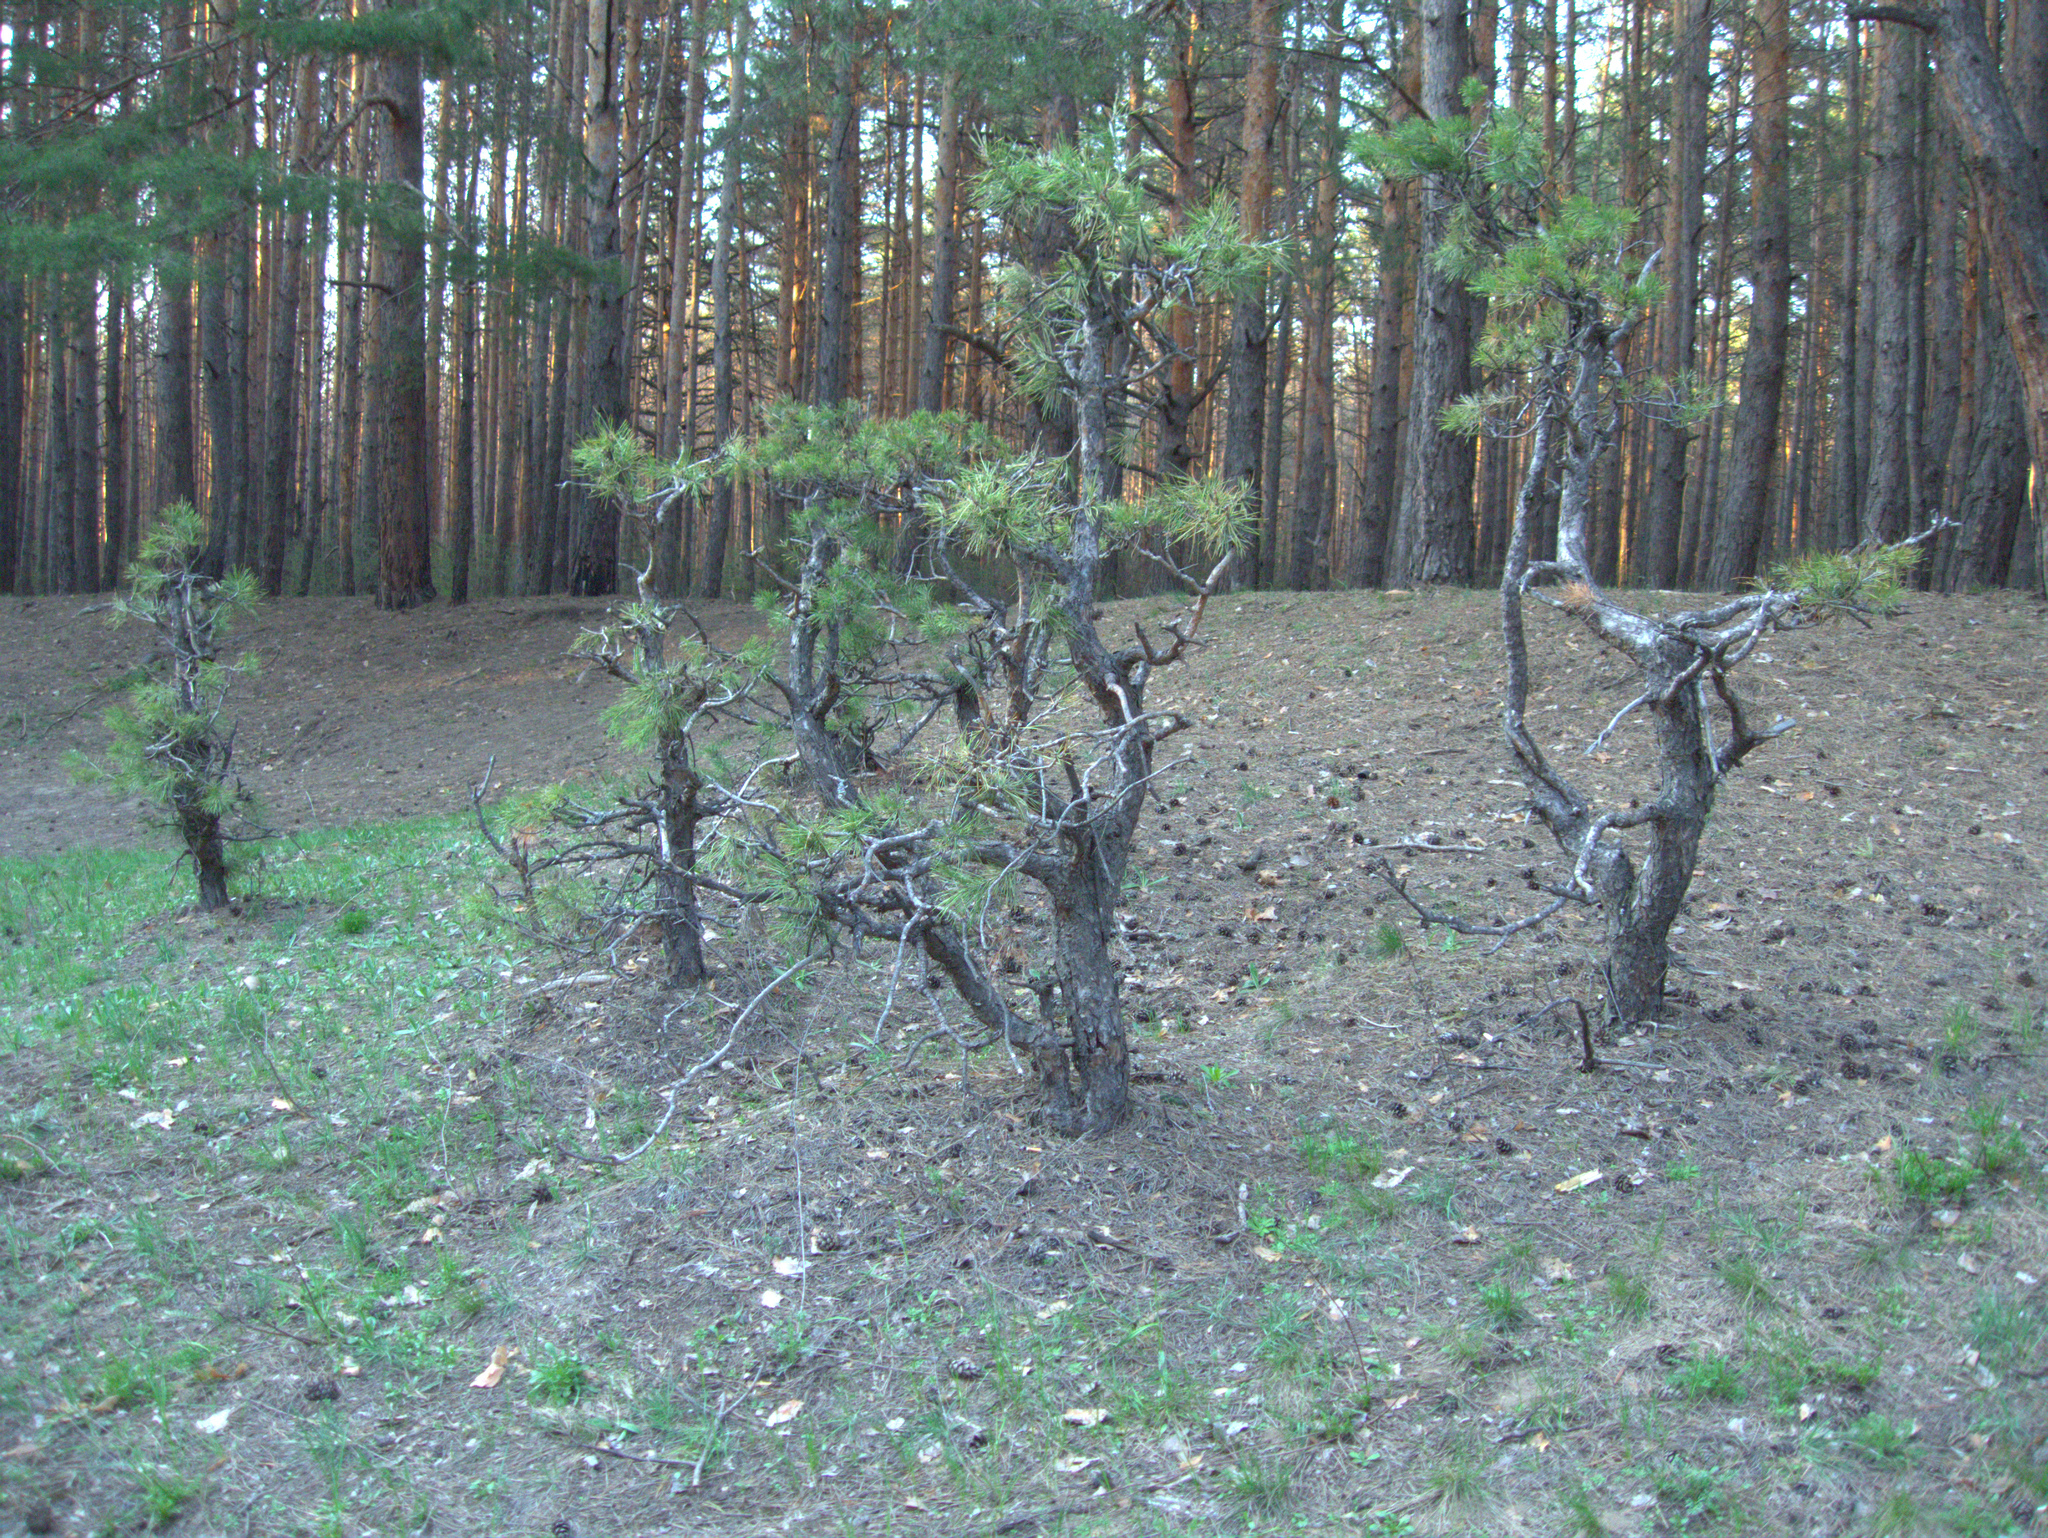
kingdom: Plantae
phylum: Tracheophyta
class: Pinopsida
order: Pinales
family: Pinaceae
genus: Pinus
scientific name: Pinus sylvestris
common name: Scots pine
